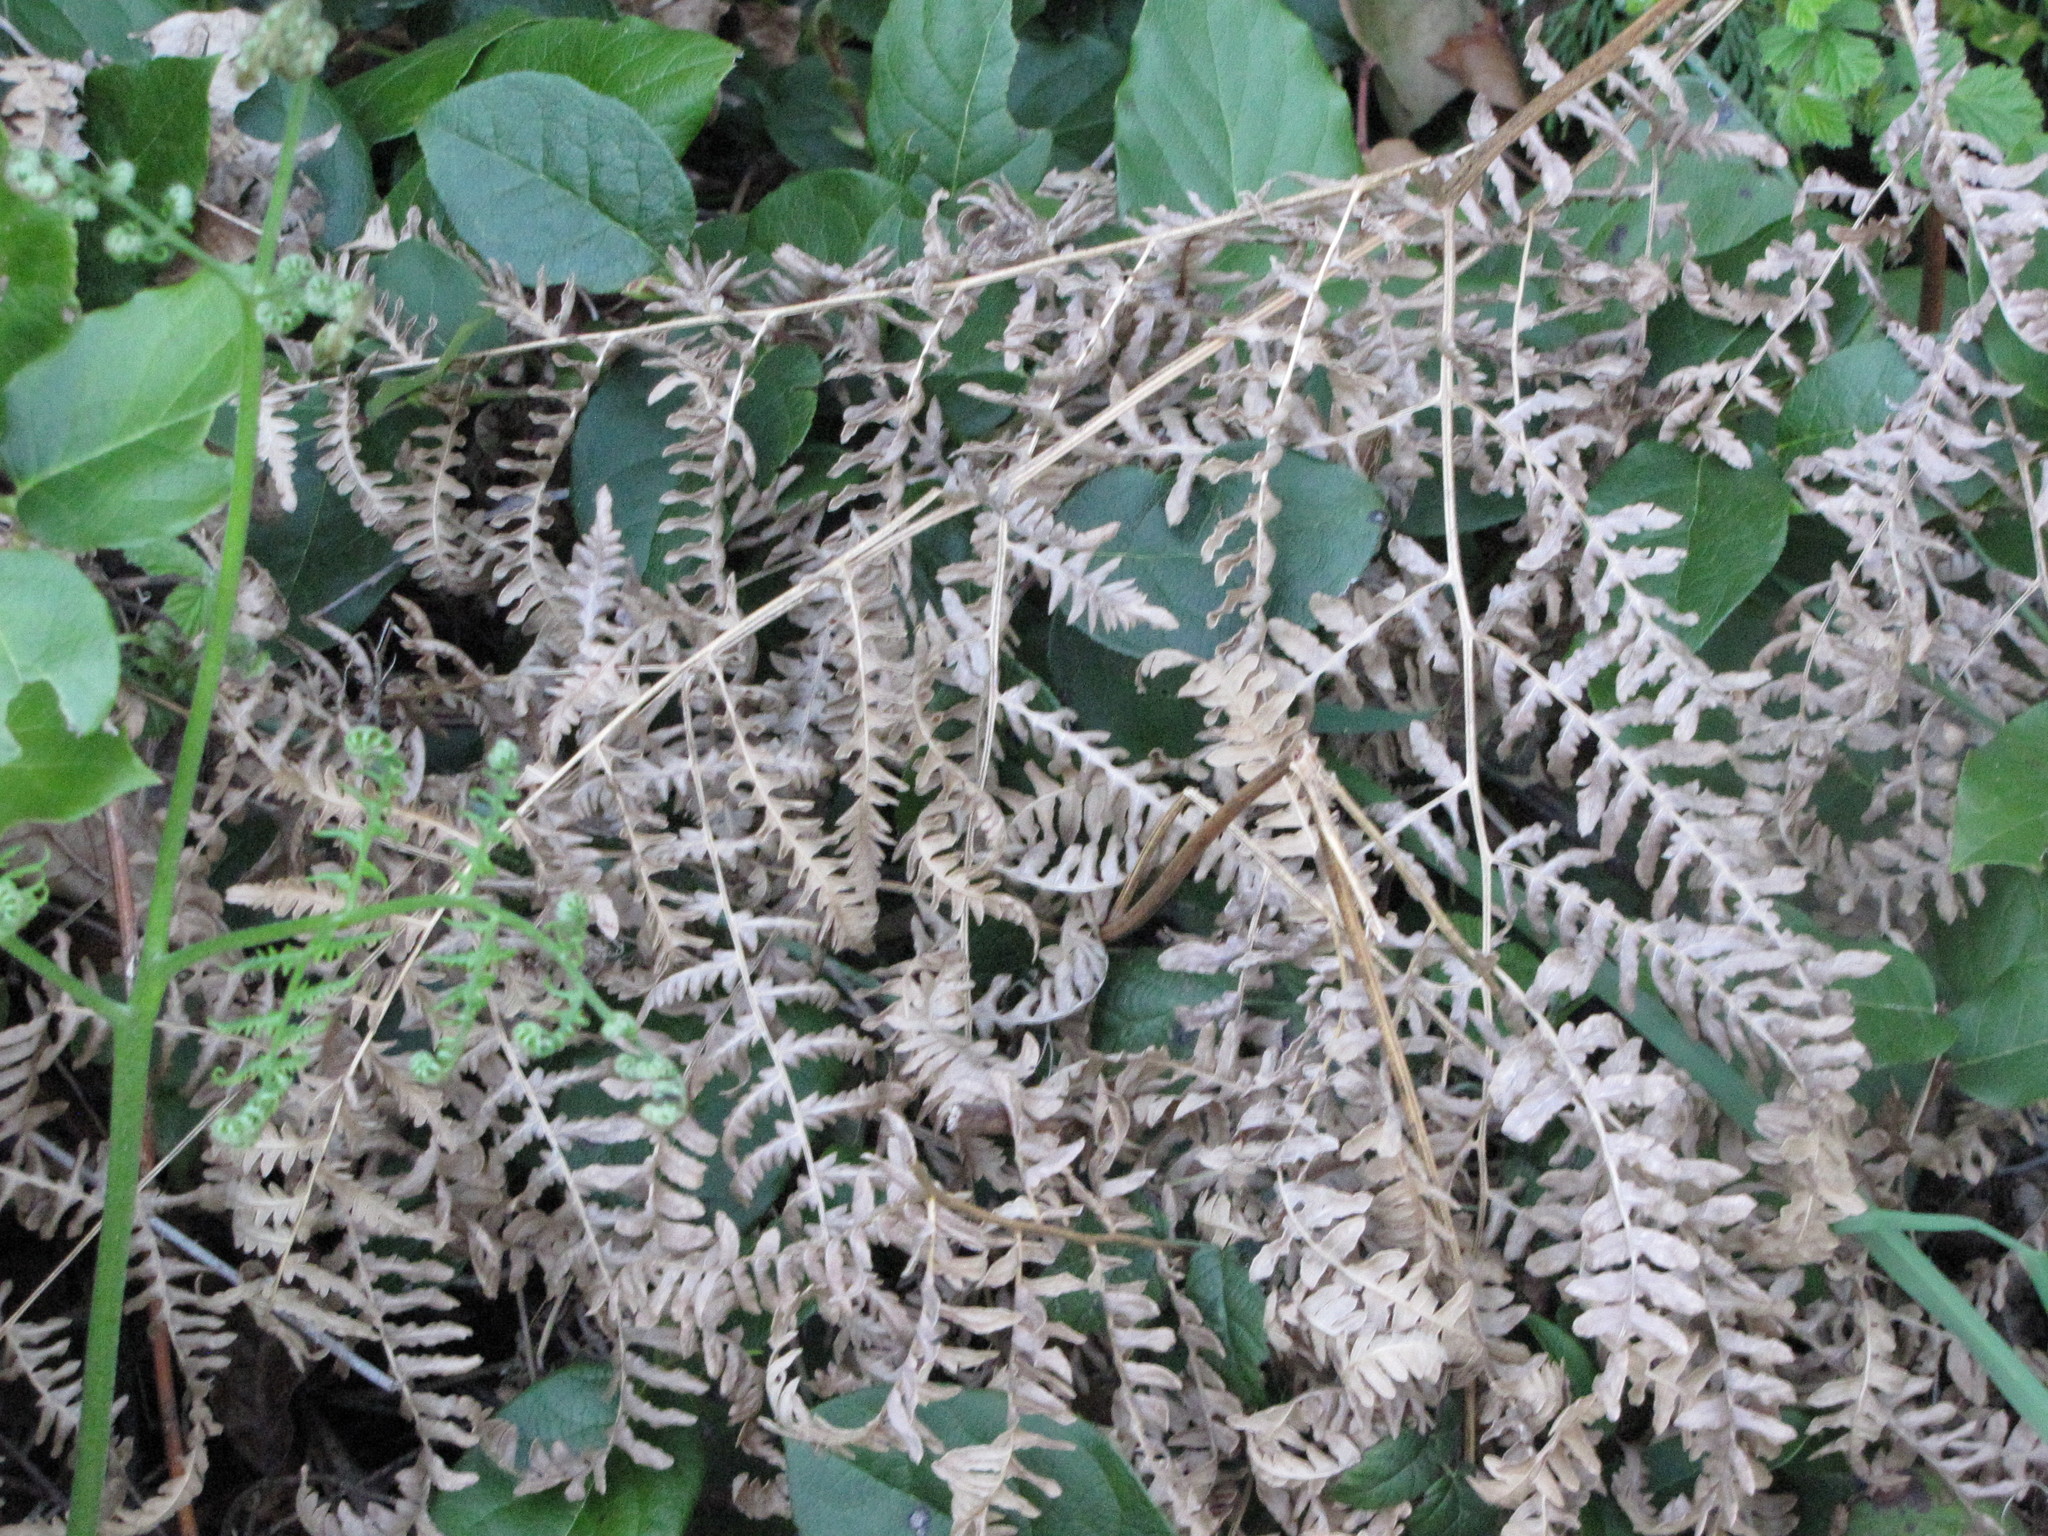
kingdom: Plantae
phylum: Tracheophyta
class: Polypodiopsida
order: Polypodiales
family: Dennstaedtiaceae
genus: Pteridium
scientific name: Pteridium aquilinum
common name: Bracken
